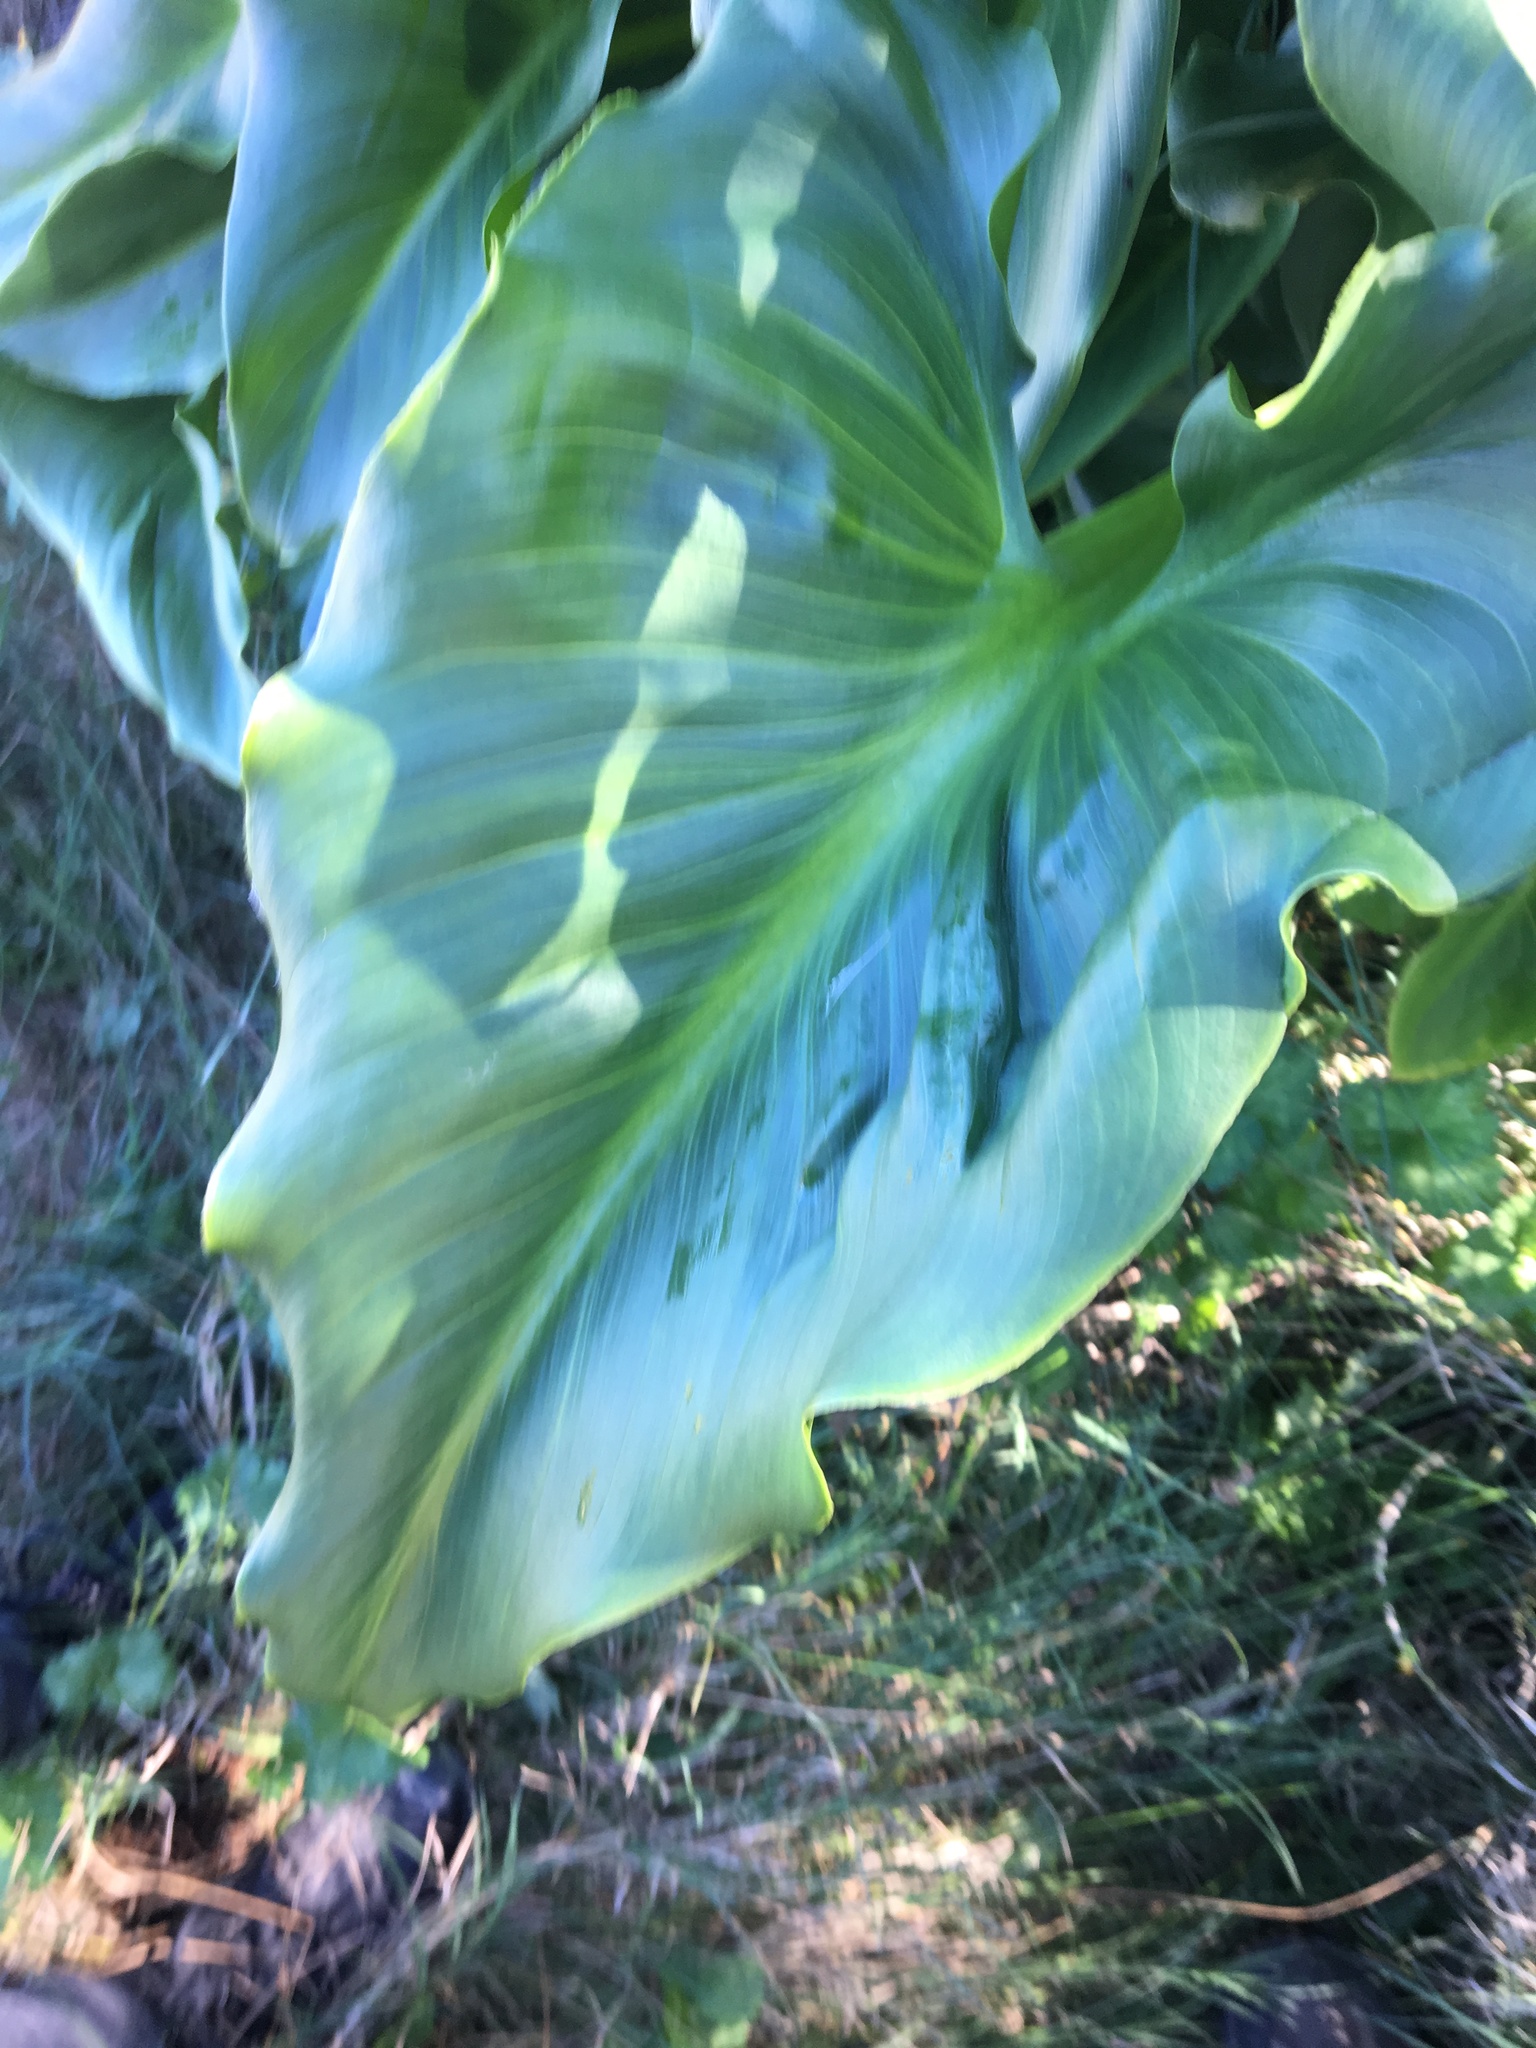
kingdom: Plantae
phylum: Tracheophyta
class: Liliopsida
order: Alismatales
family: Araceae
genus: Zantedeschia
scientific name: Zantedeschia aethiopica
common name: Altar-lily
